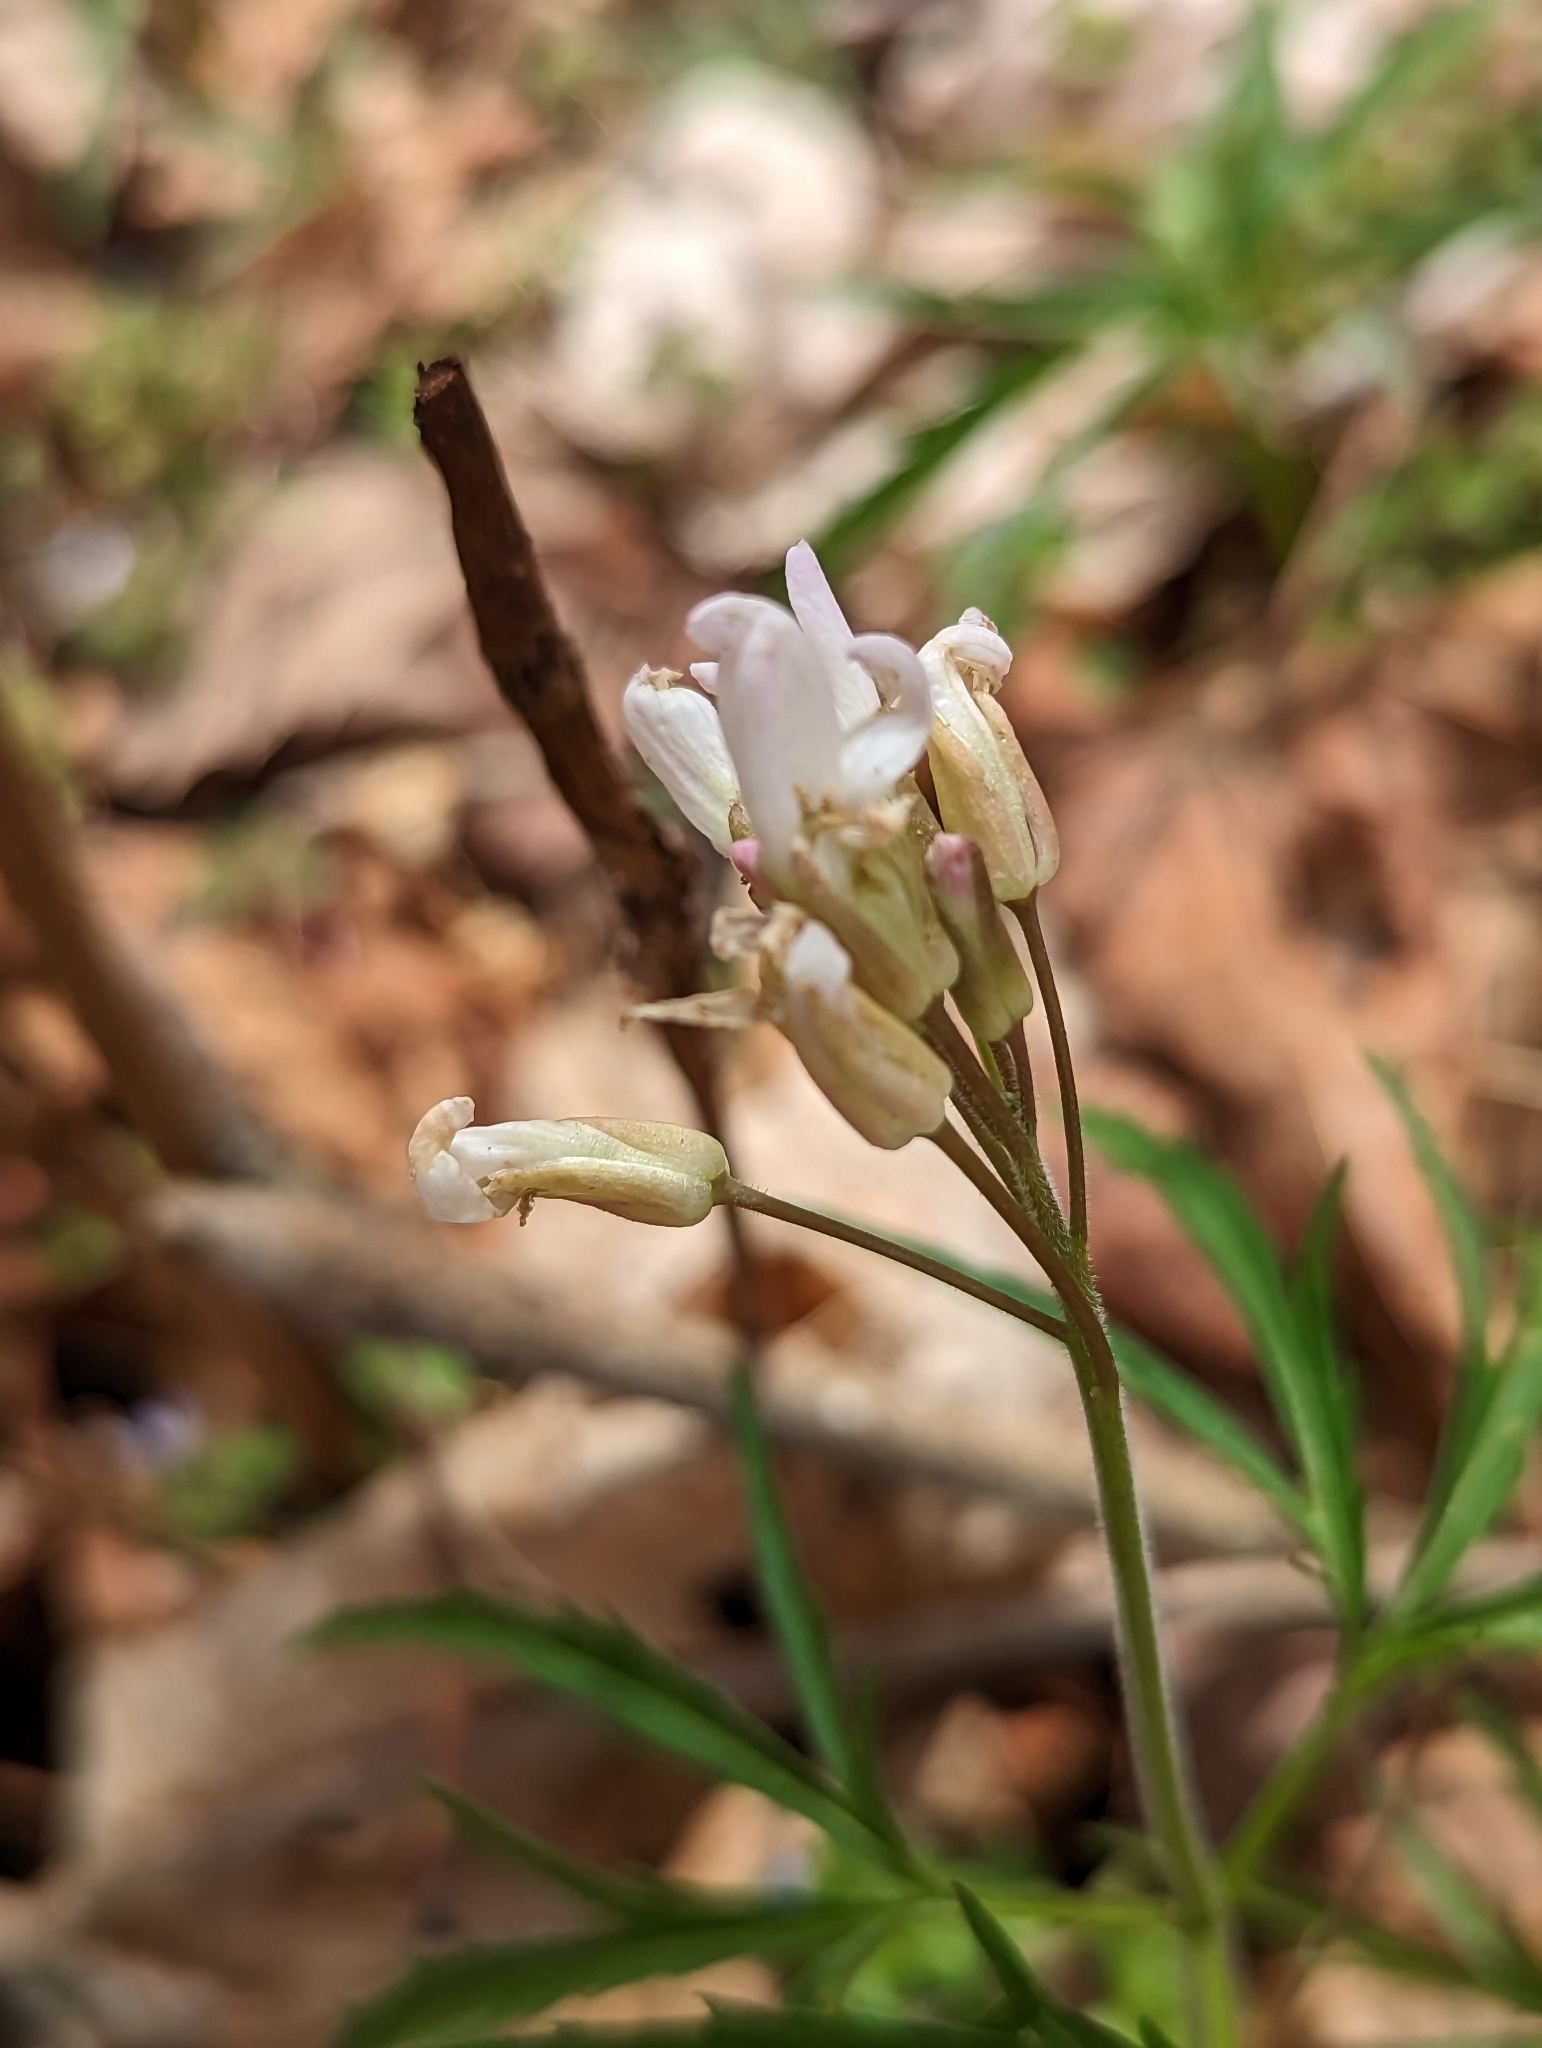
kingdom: Plantae
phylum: Tracheophyta
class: Magnoliopsida
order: Brassicales
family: Brassicaceae
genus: Cardamine
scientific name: Cardamine concatenata
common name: Cut-leaf toothcup
